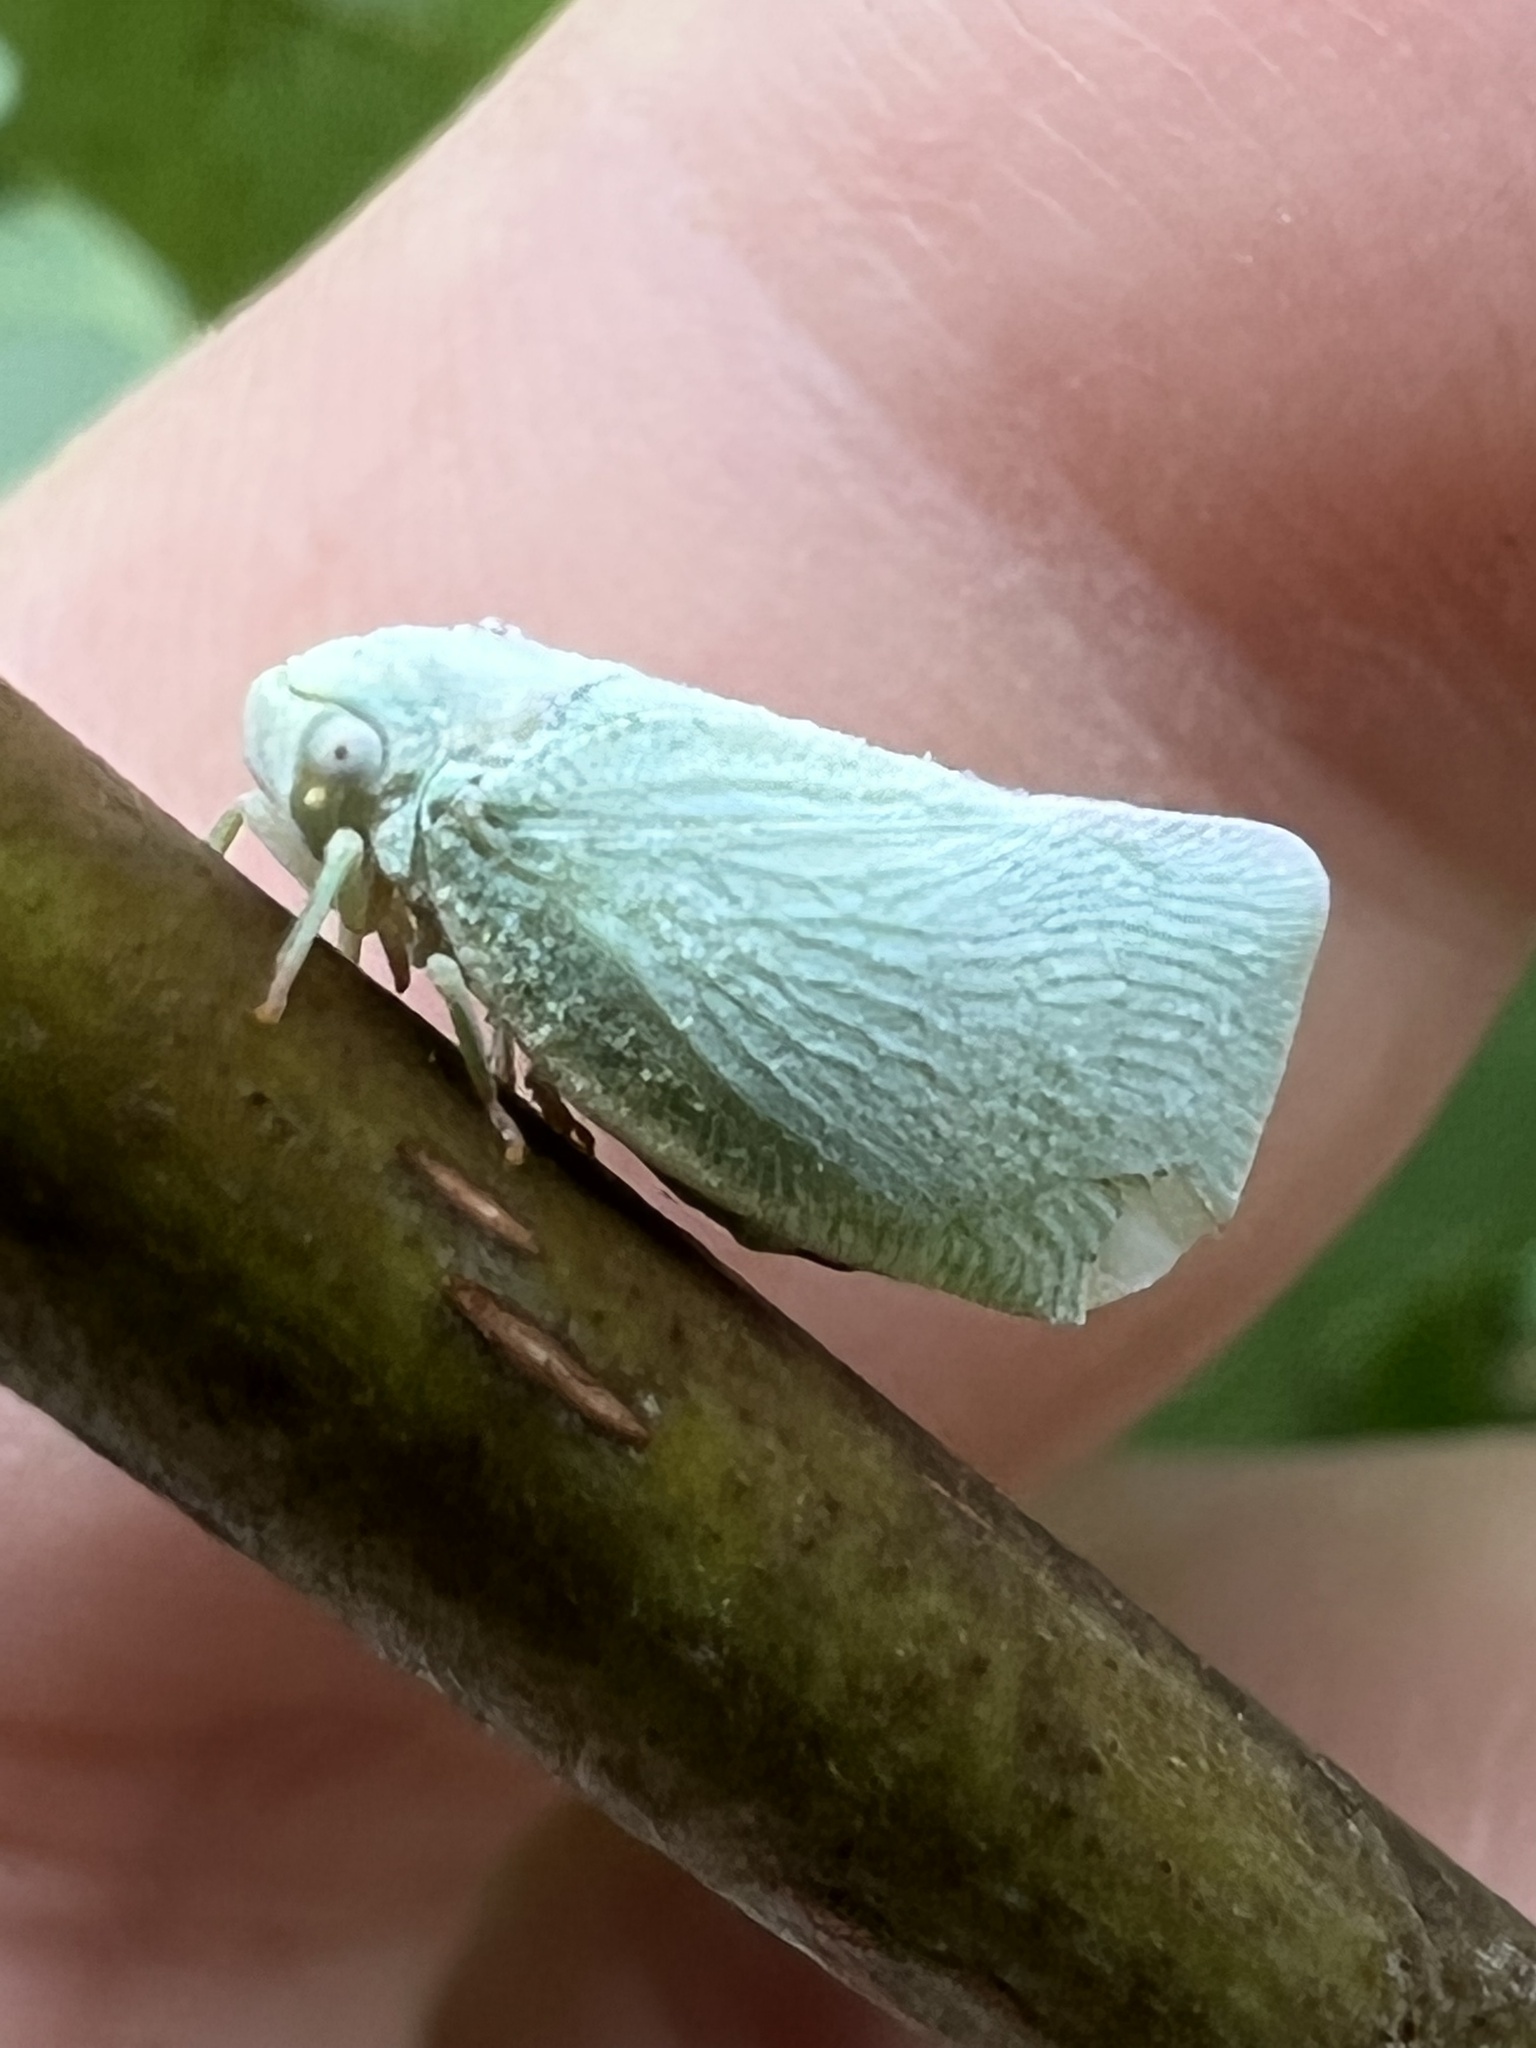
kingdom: Animalia
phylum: Arthropoda
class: Insecta
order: Hemiptera
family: Flatidae
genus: Flatormenis
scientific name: Flatormenis proxima
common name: Northern flatid planthopper
